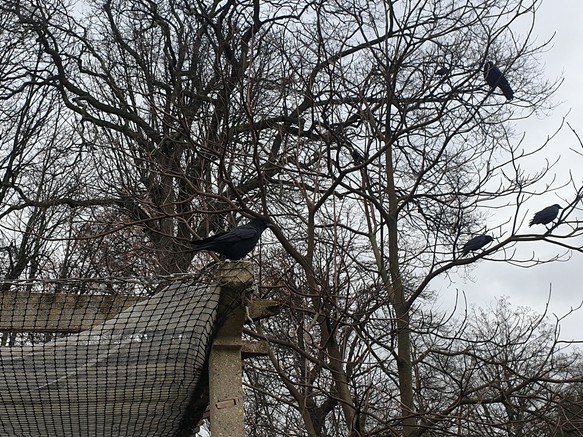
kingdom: Animalia
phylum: Chordata
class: Aves
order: Passeriformes
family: Corvidae
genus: Corvus
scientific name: Corvus corone
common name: Carrion crow
